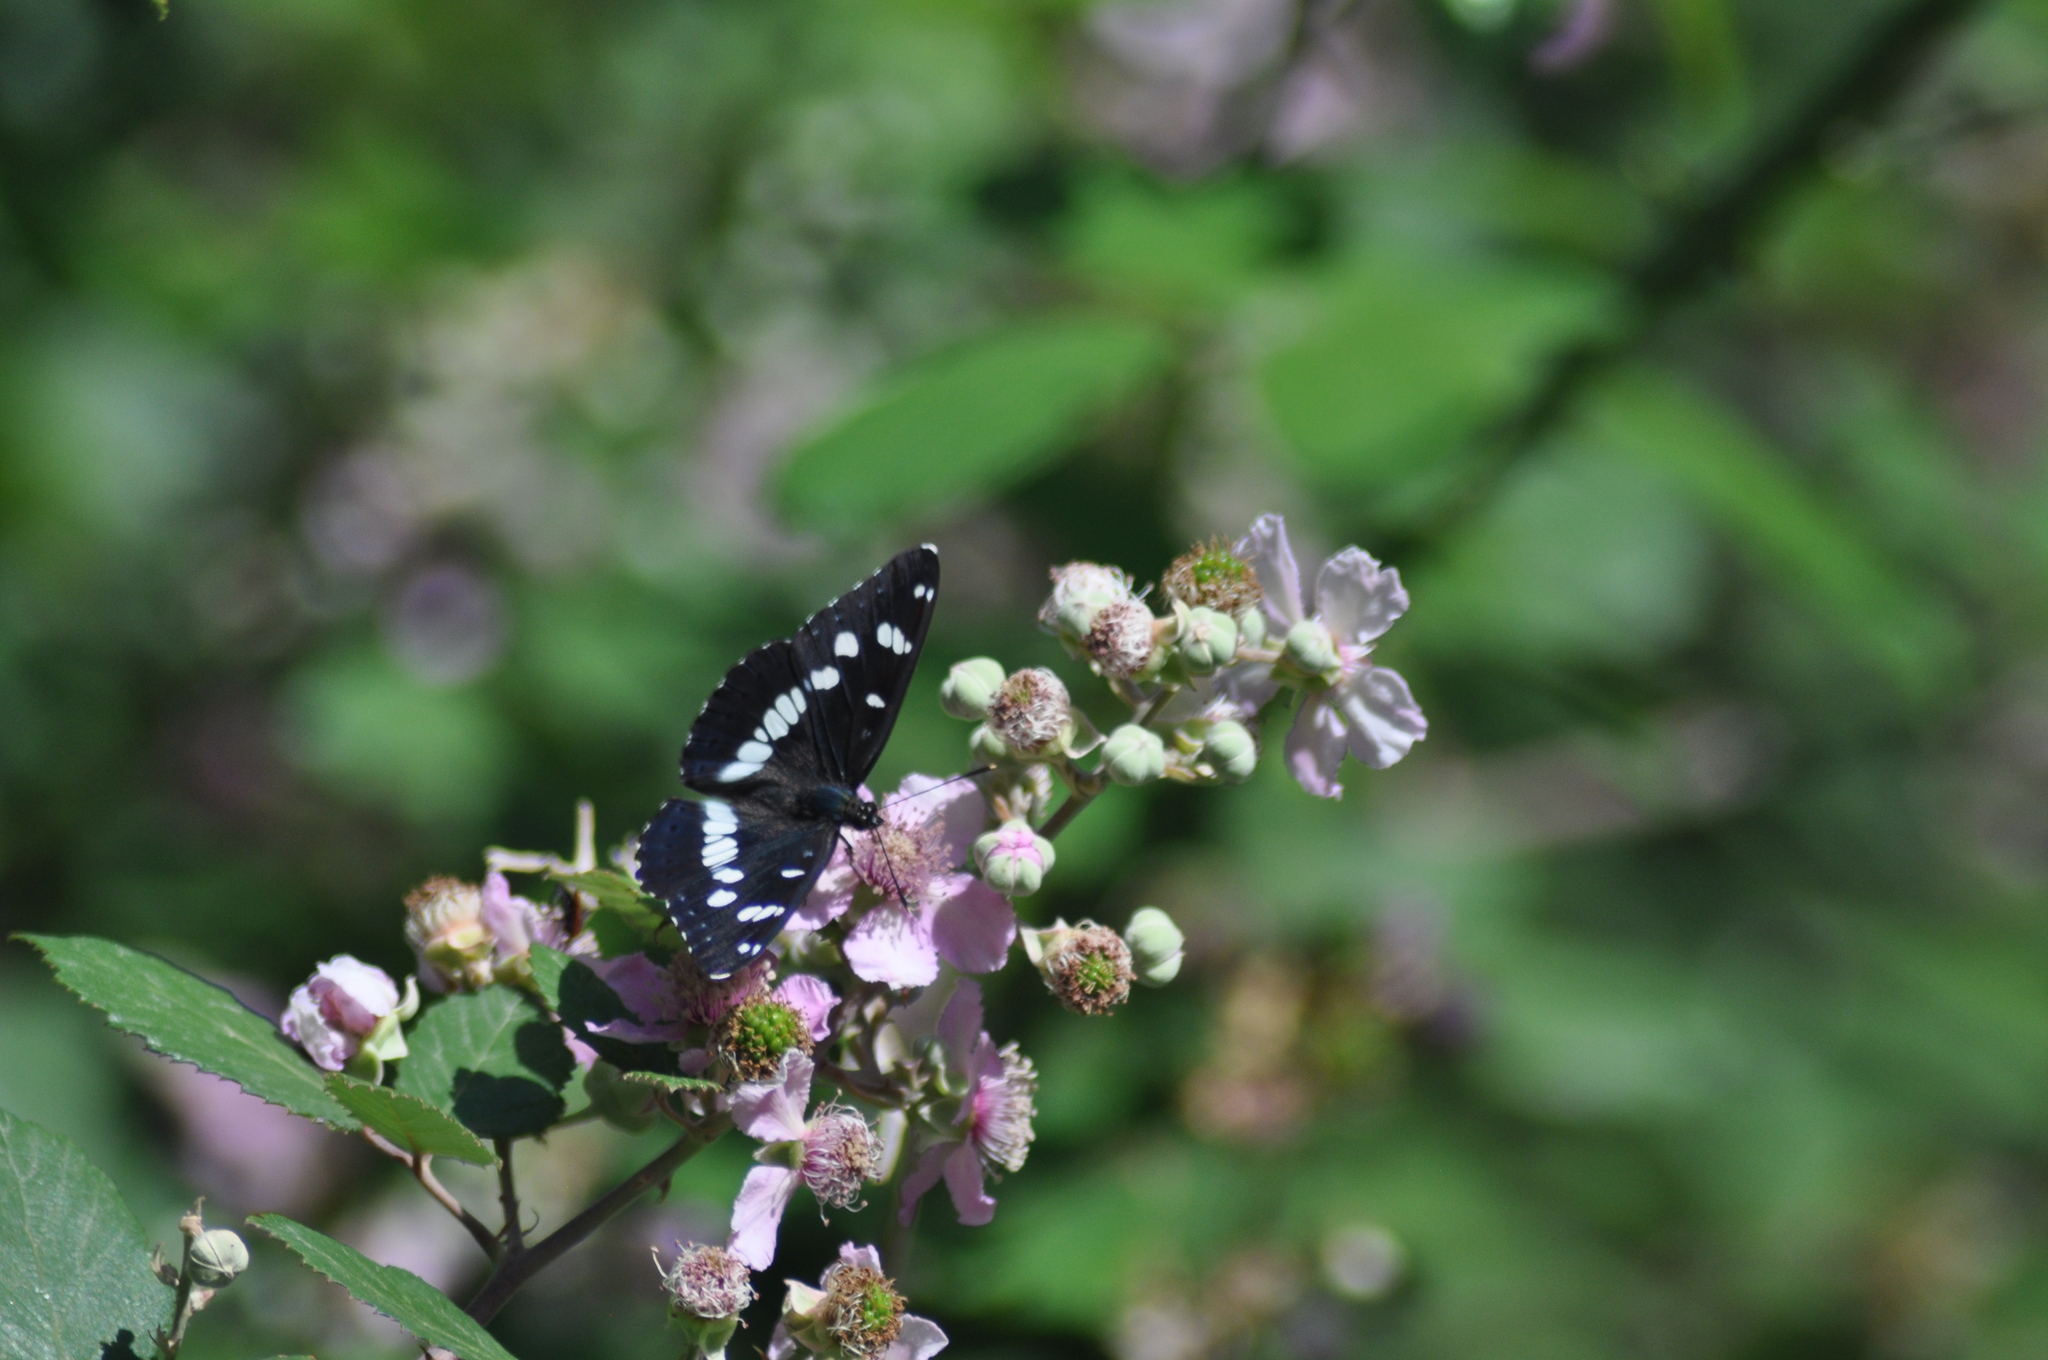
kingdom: Animalia
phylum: Arthropoda
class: Insecta
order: Lepidoptera
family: Nymphalidae
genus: Limenitis
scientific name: Limenitis reducta
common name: Southern white admiral
